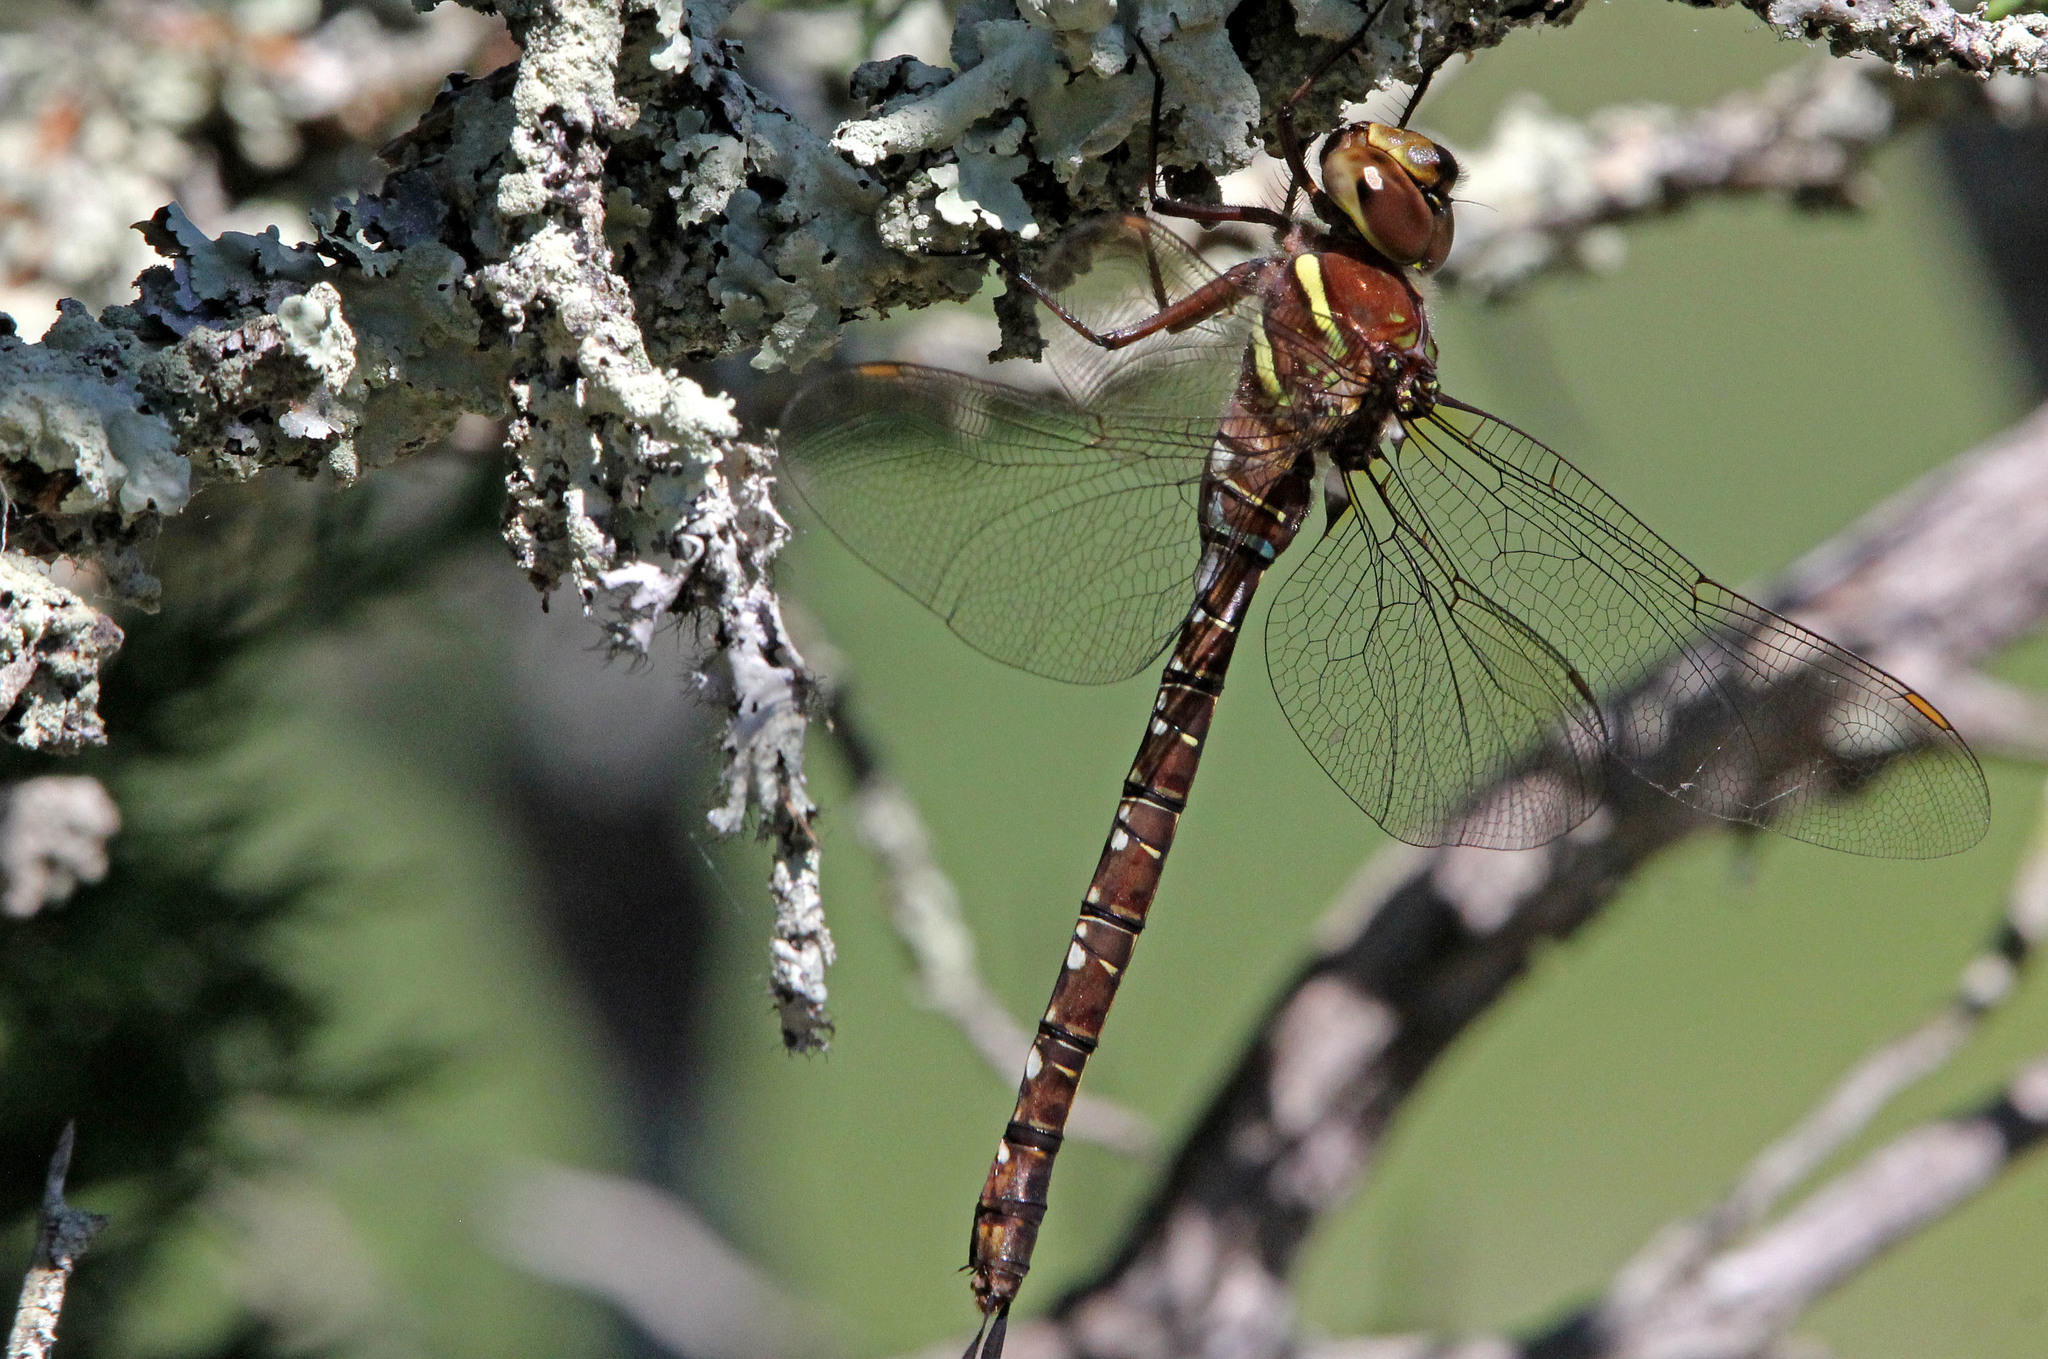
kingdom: Animalia
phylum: Arthropoda
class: Insecta
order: Odonata
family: Aeshnidae
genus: Aeshna
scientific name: Aeshna umbrosa
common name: Shadow darner
